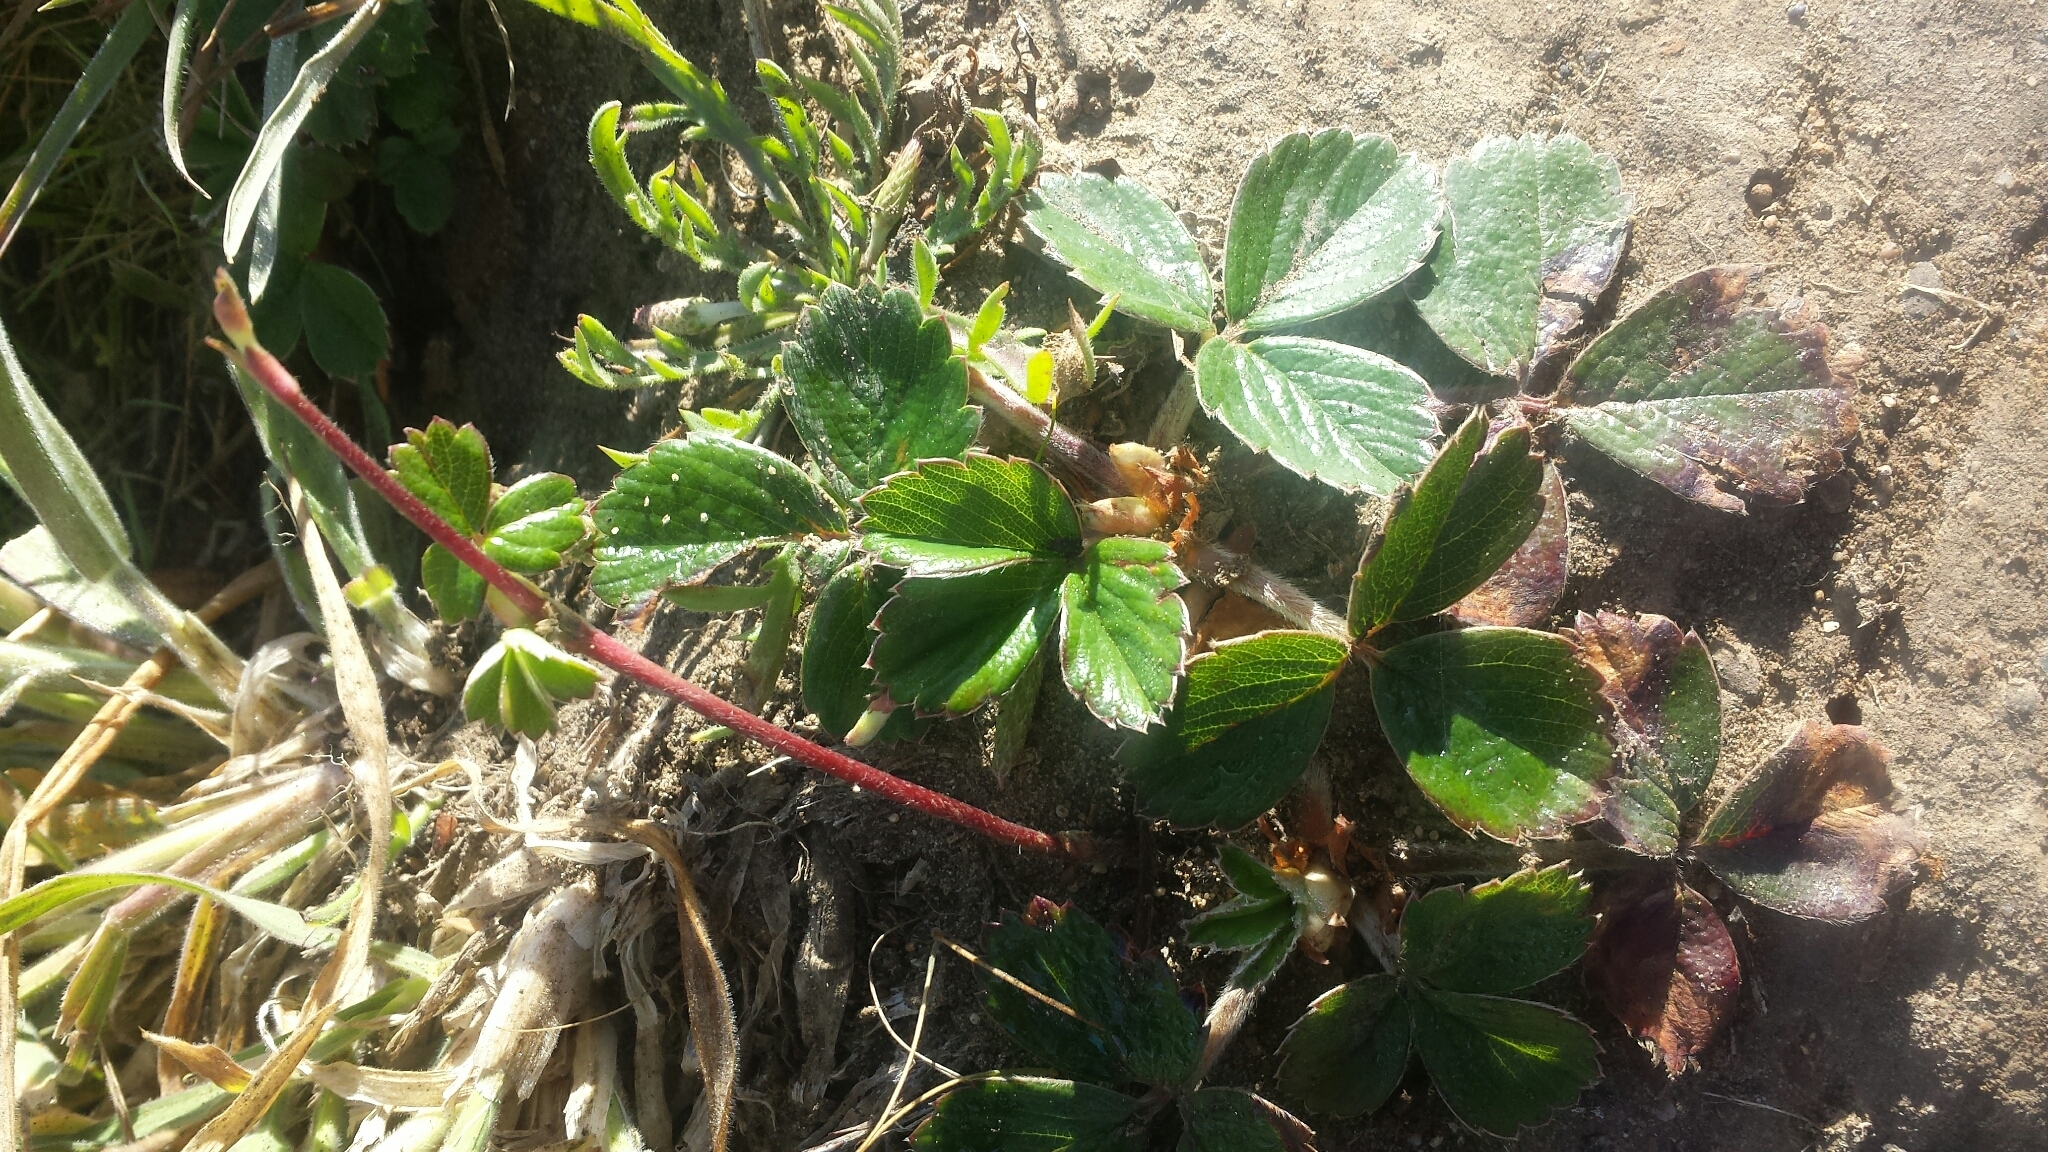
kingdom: Plantae
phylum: Tracheophyta
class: Magnoliopsida
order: Rosales
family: Rosaceae
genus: Fragaria
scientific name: Fragaria chiloensis
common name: Beach strawberry
